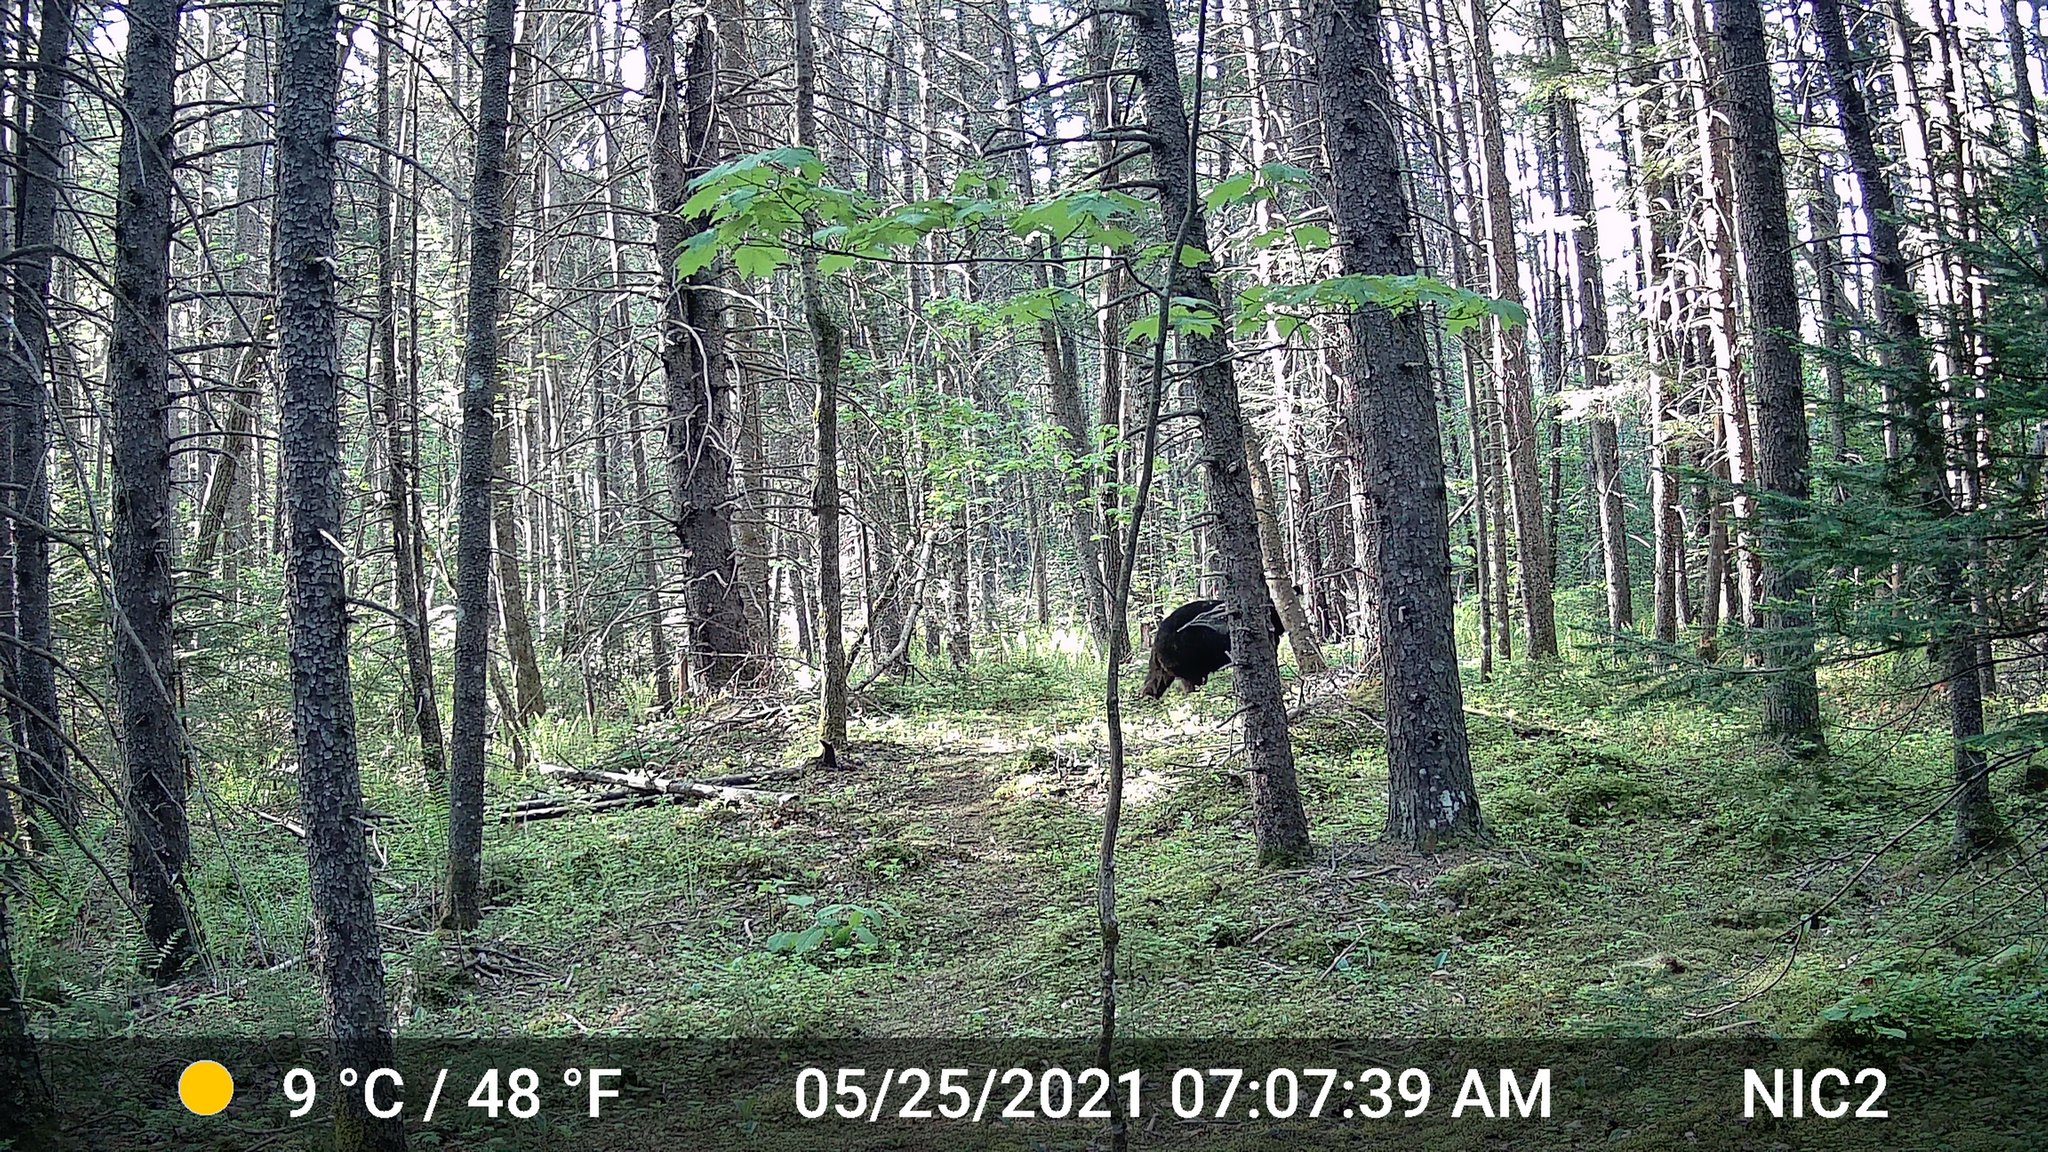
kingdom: Animalia
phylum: Chordata
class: Mammalia
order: Carnivora
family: Ursidae
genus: Ursus
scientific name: Ursus americanus
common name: American black bear
